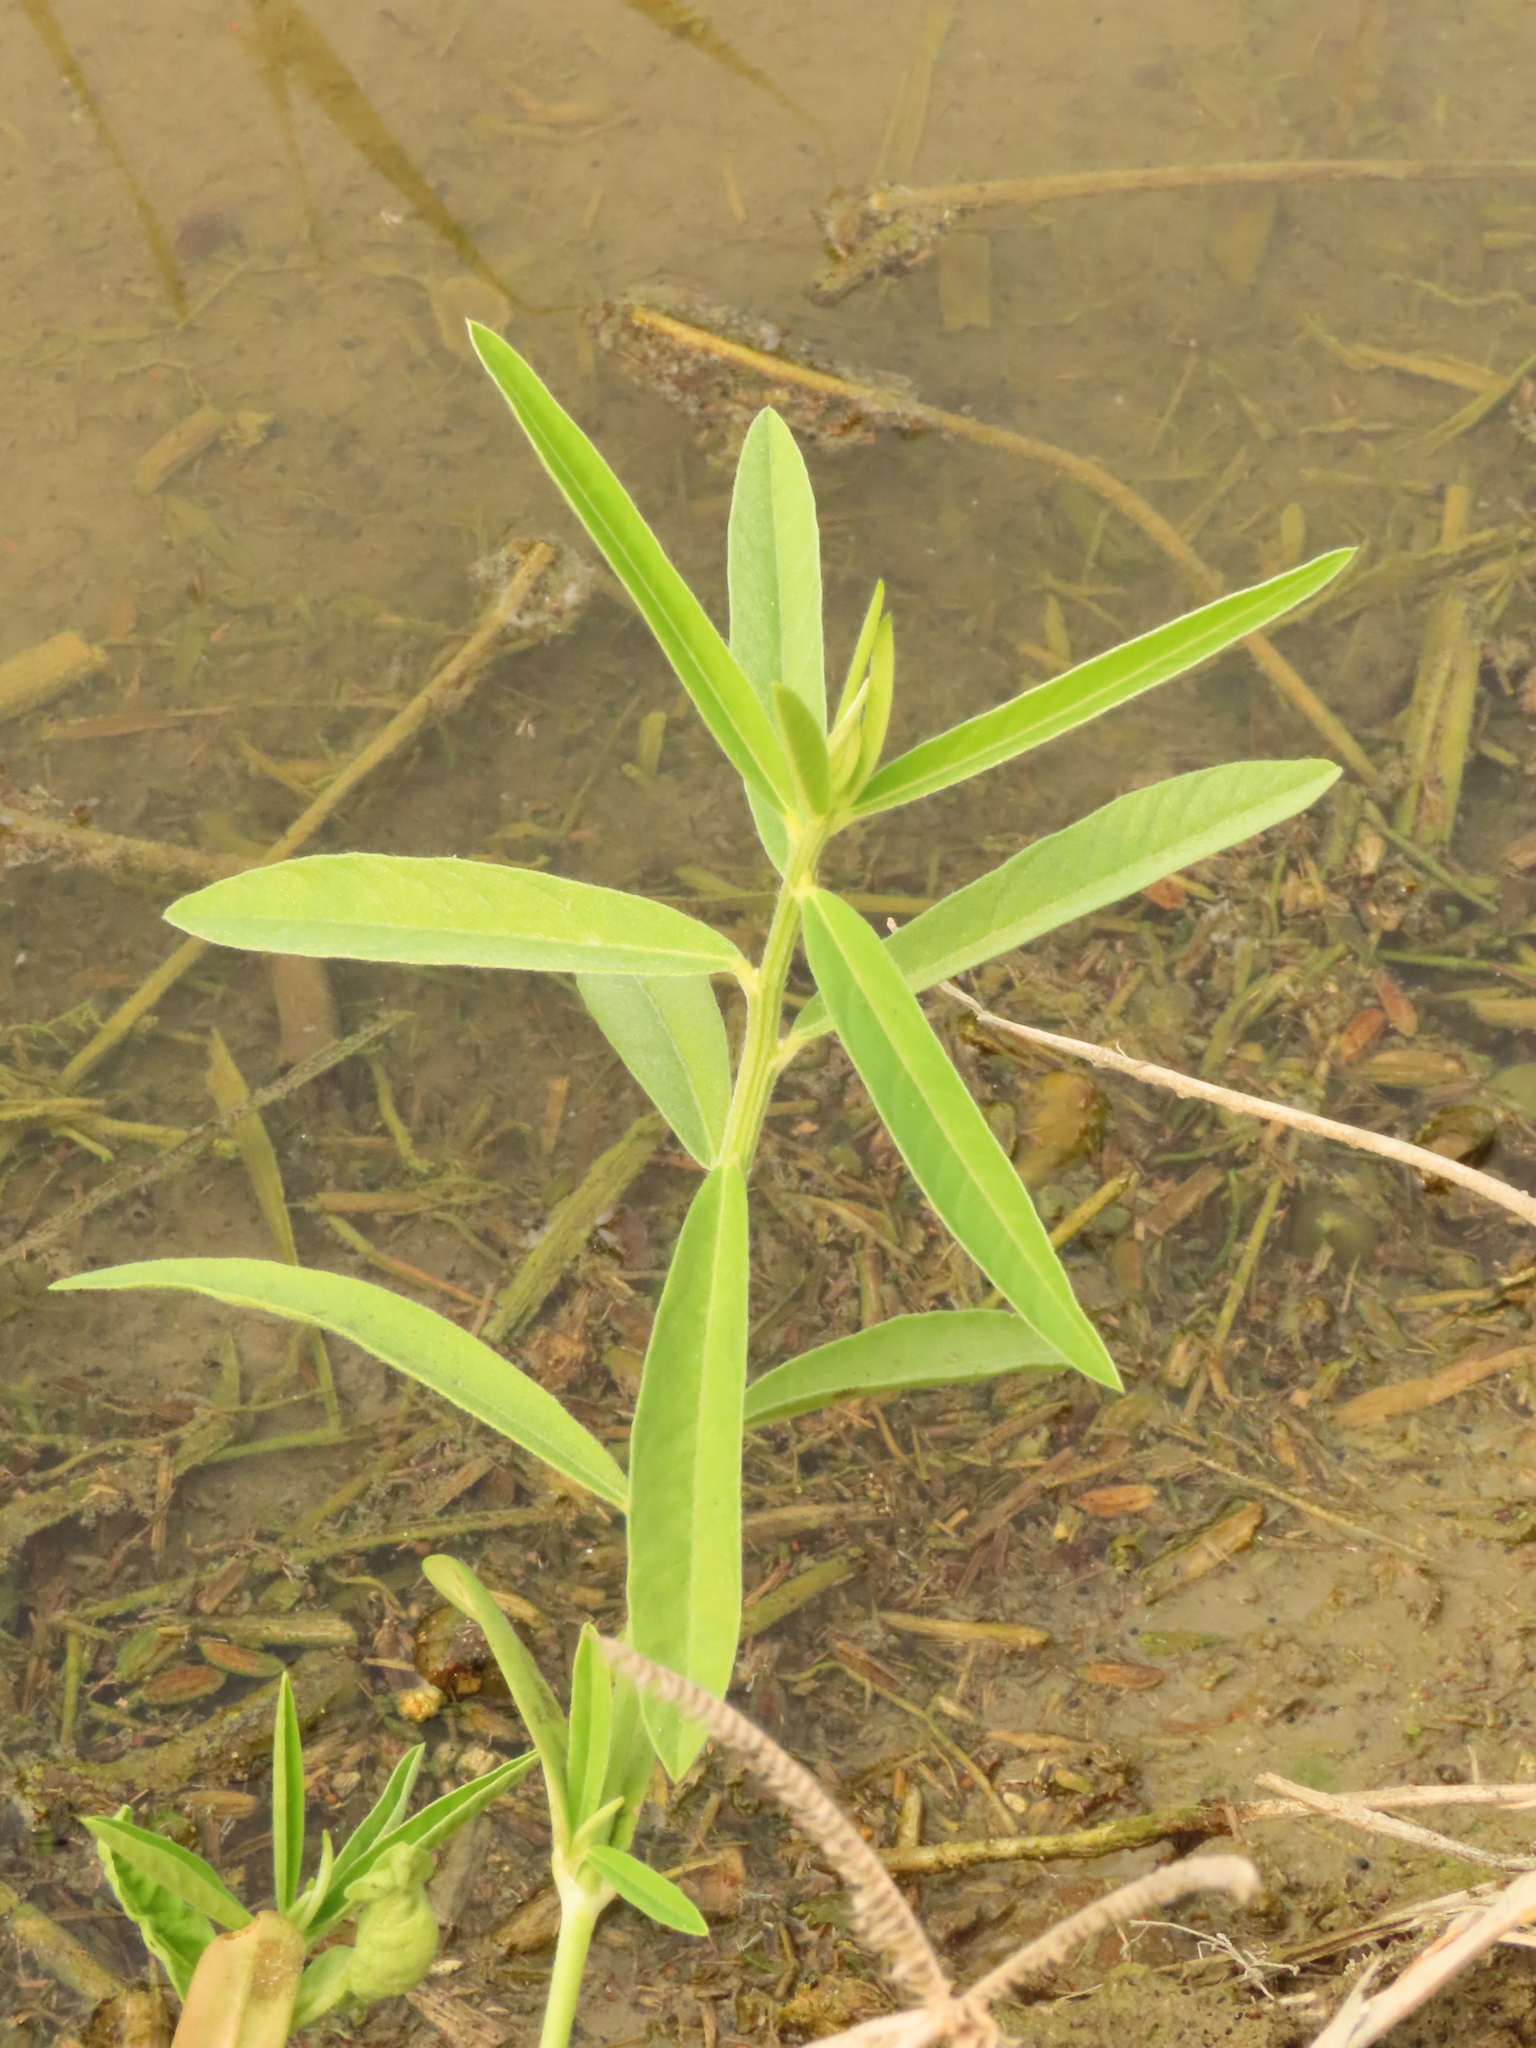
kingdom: Plantae
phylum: Tracheophyta
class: Magnoliopsida
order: Solanales
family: Sphenocleaceae
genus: Sphenoclea
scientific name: Sphenoclea zeylanica
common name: Chickenspike
